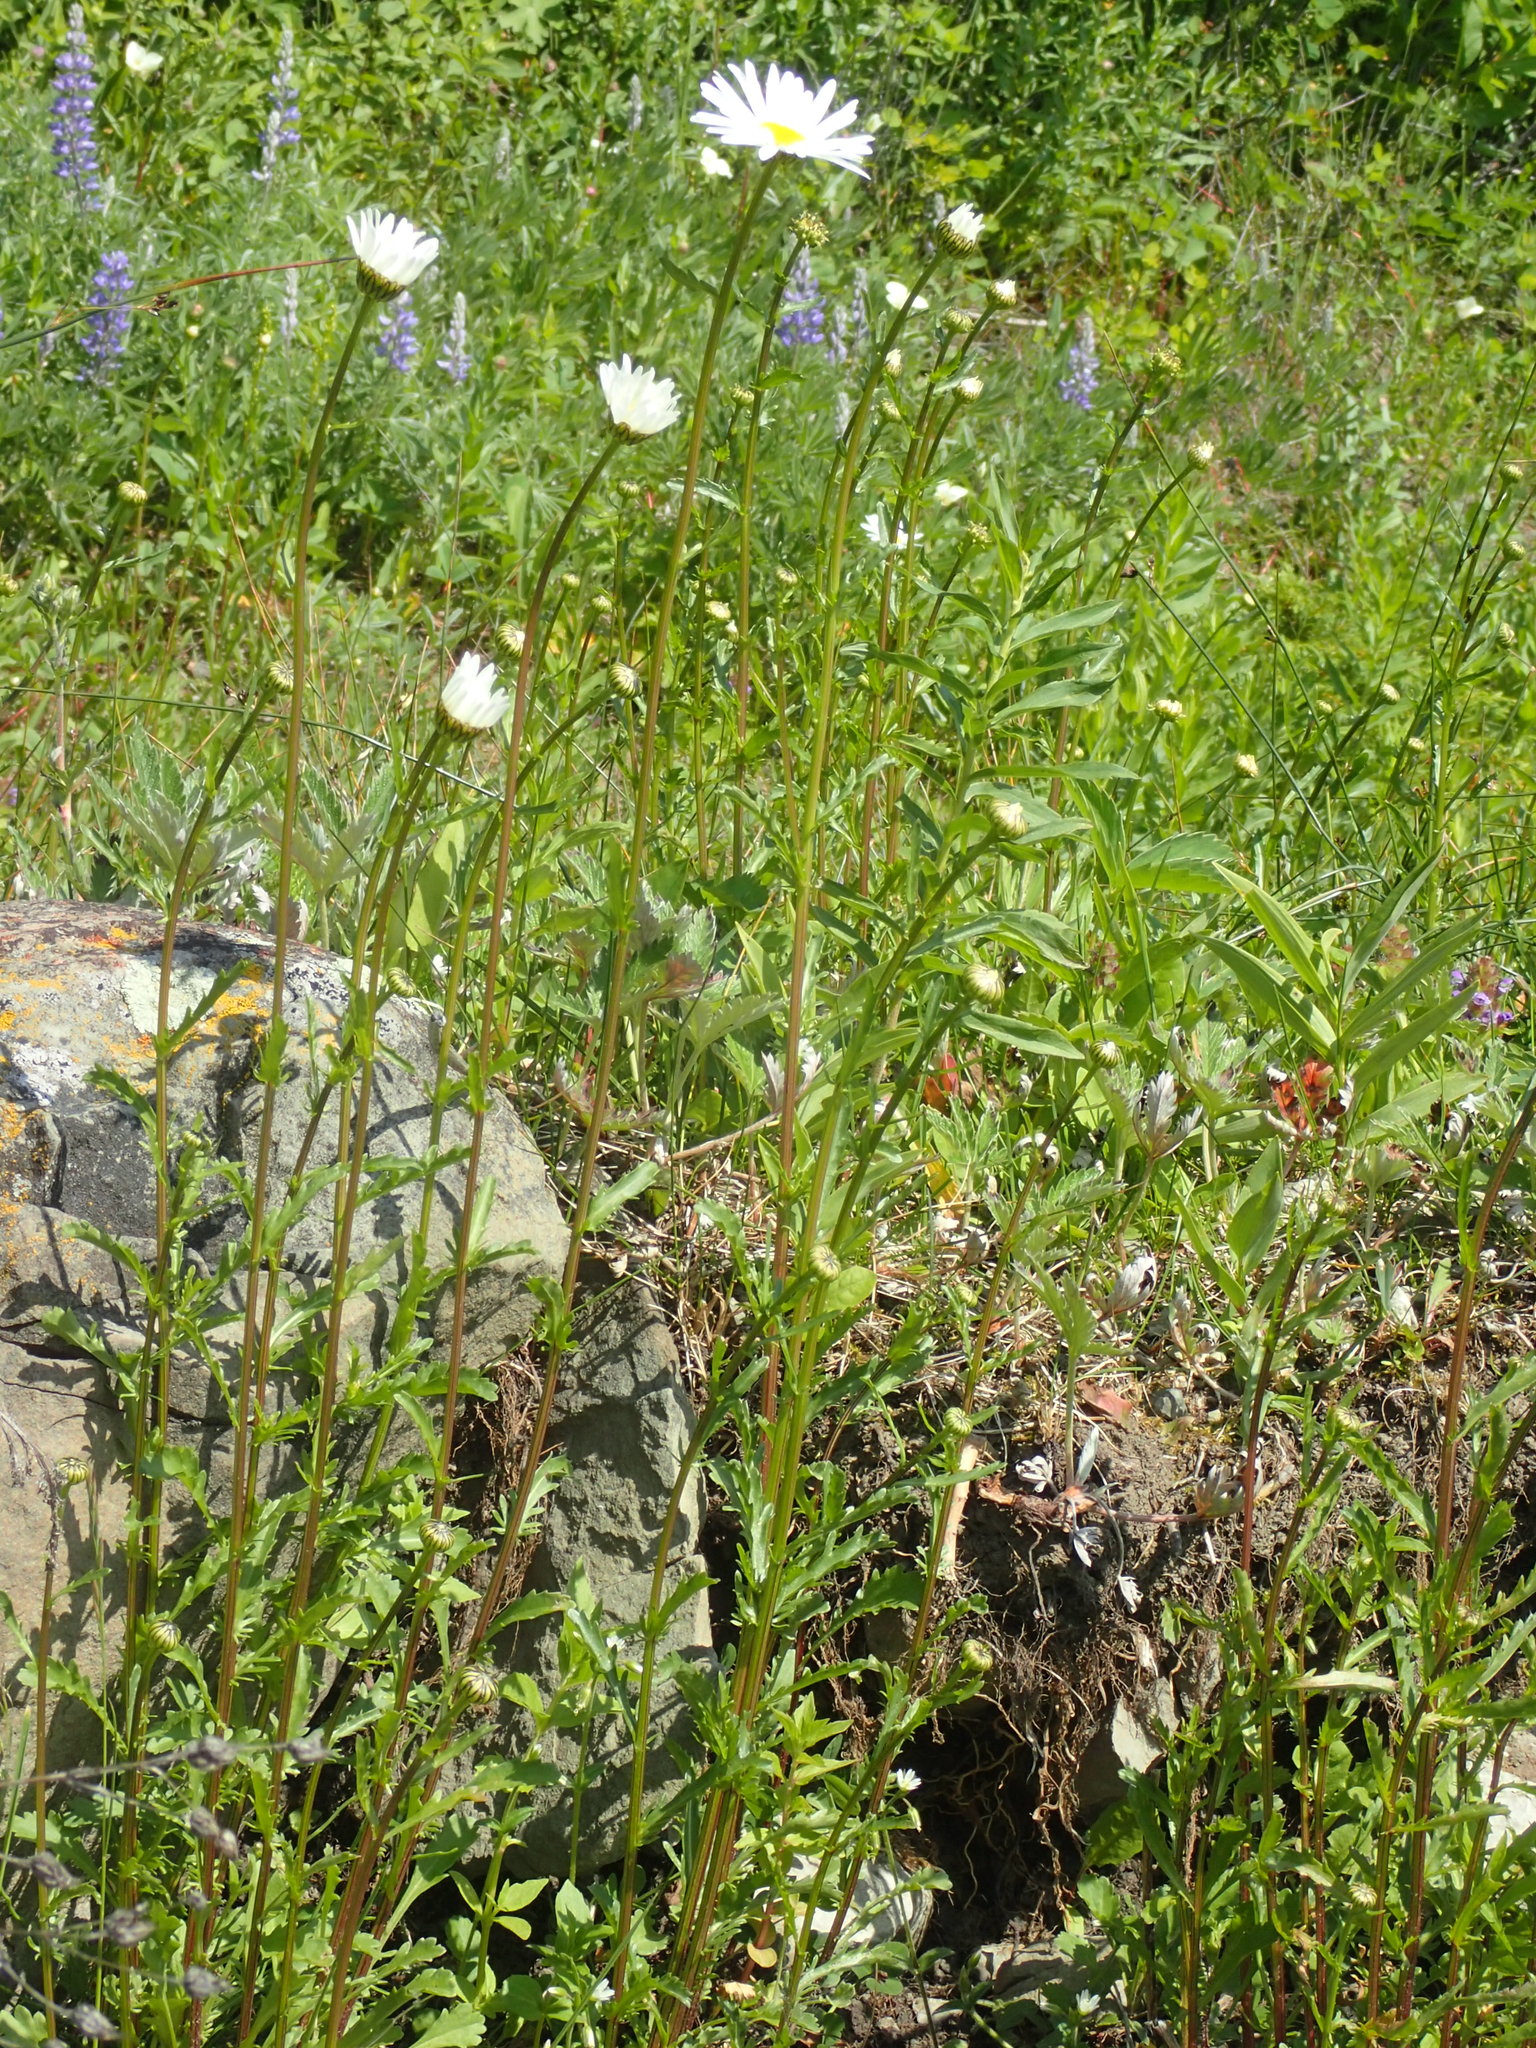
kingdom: Plantae
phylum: Tracheophyta
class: Magnoliopsida
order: Asterales
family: Asteraceae
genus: Leucanthemum
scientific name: Leucanthemum vulgare
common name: Oxeye daisy
